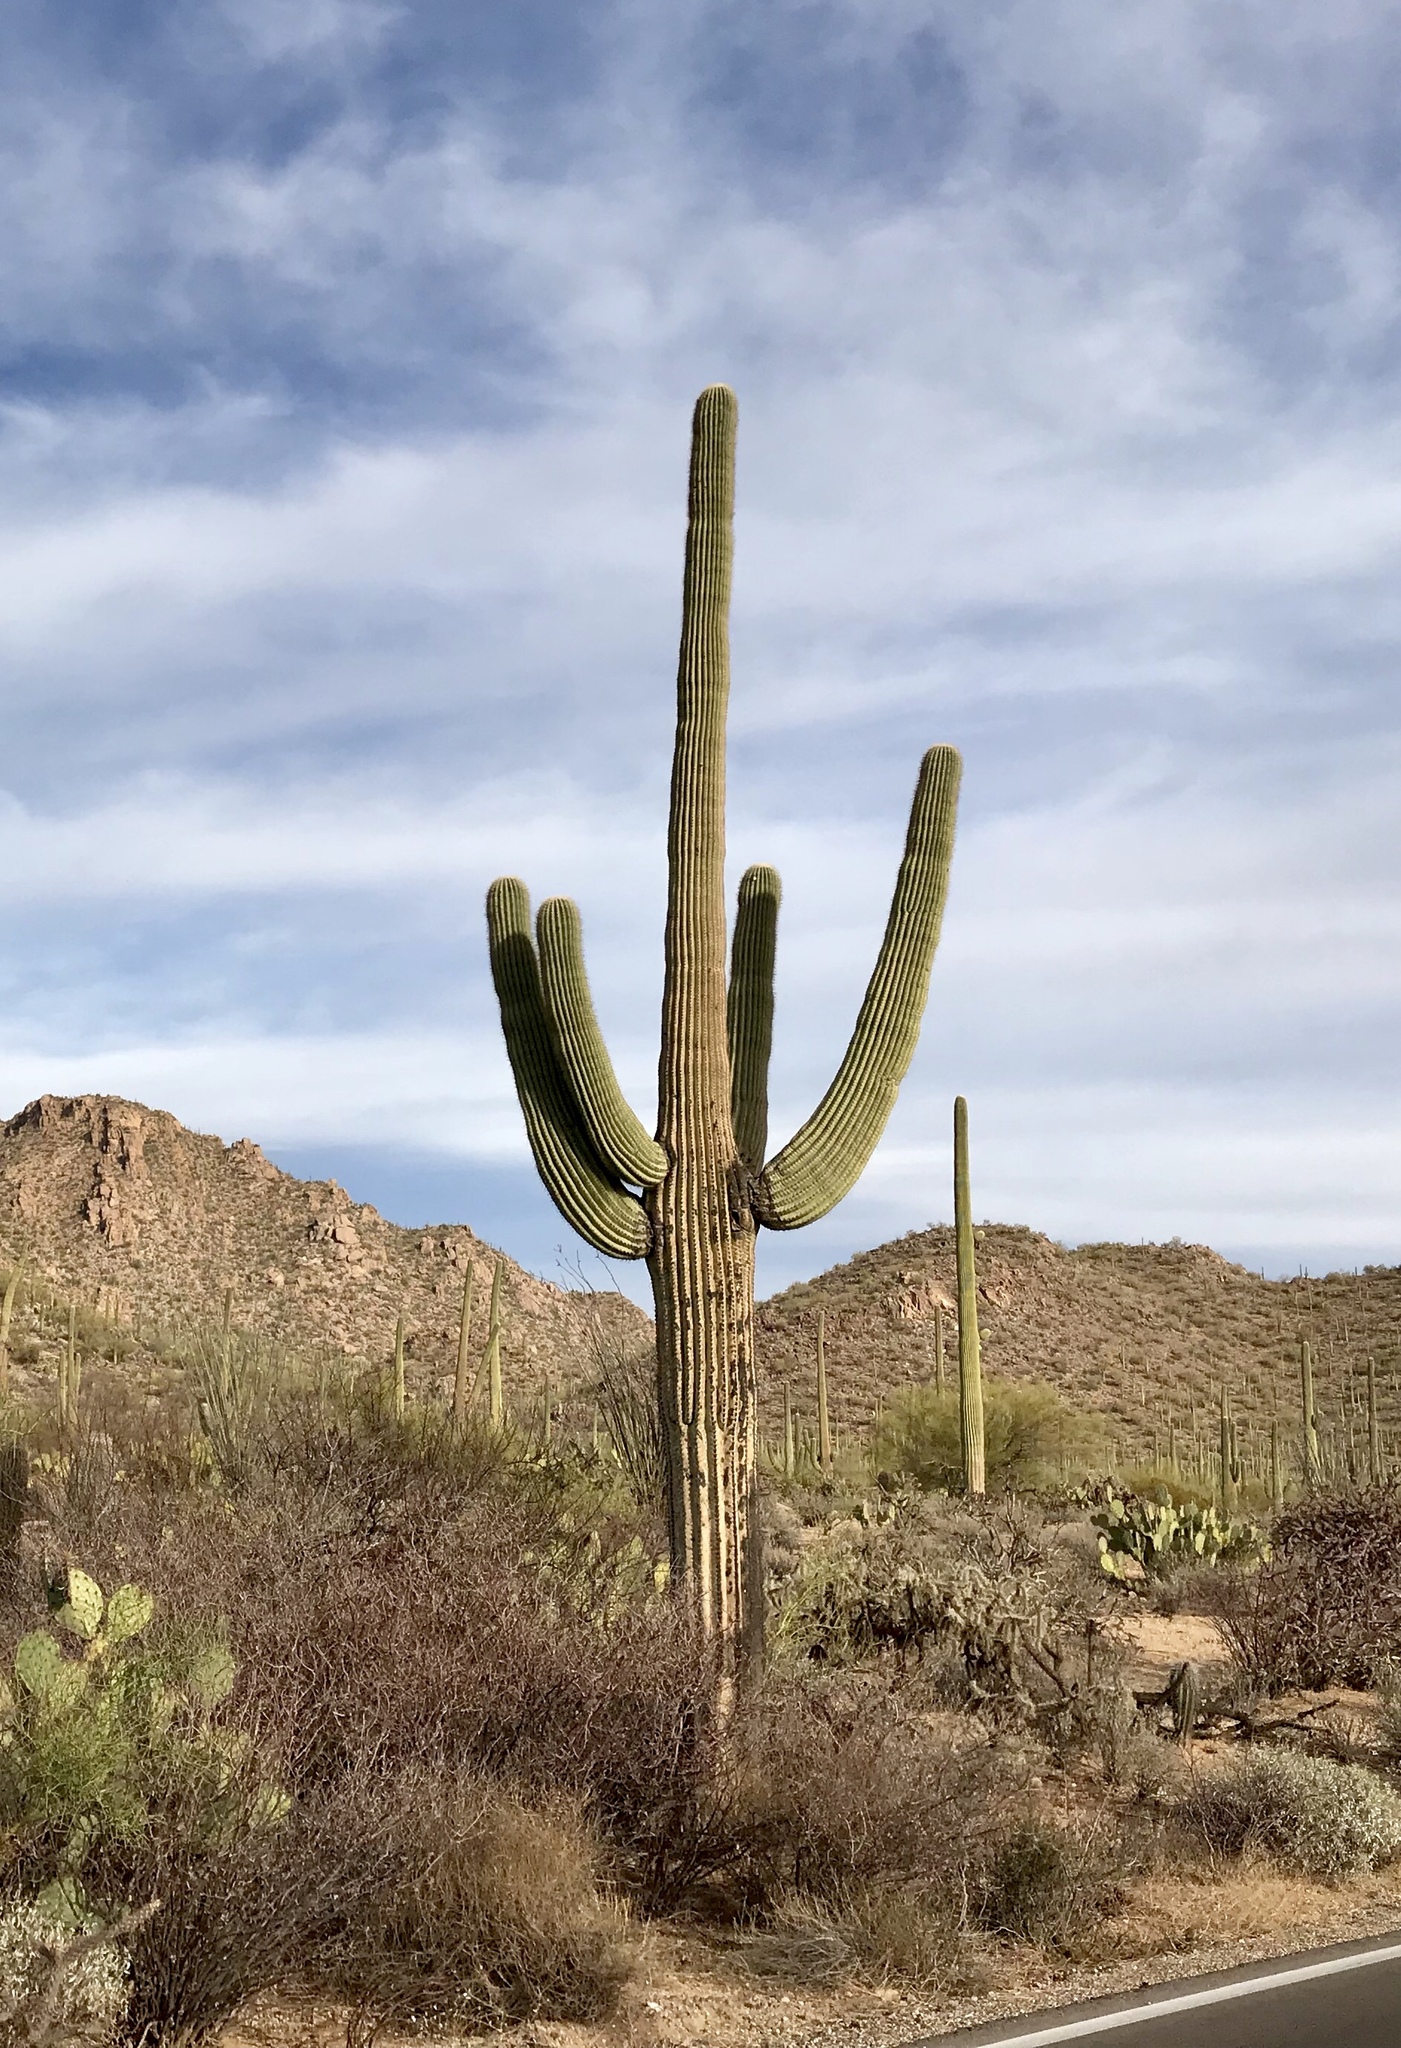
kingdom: Plantae
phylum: Tracheophyta
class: Magnoliopsida
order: Caryophyllales
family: Cactaceae
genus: Carnegiea
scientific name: Carnegiea gigantea
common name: Saguaro
